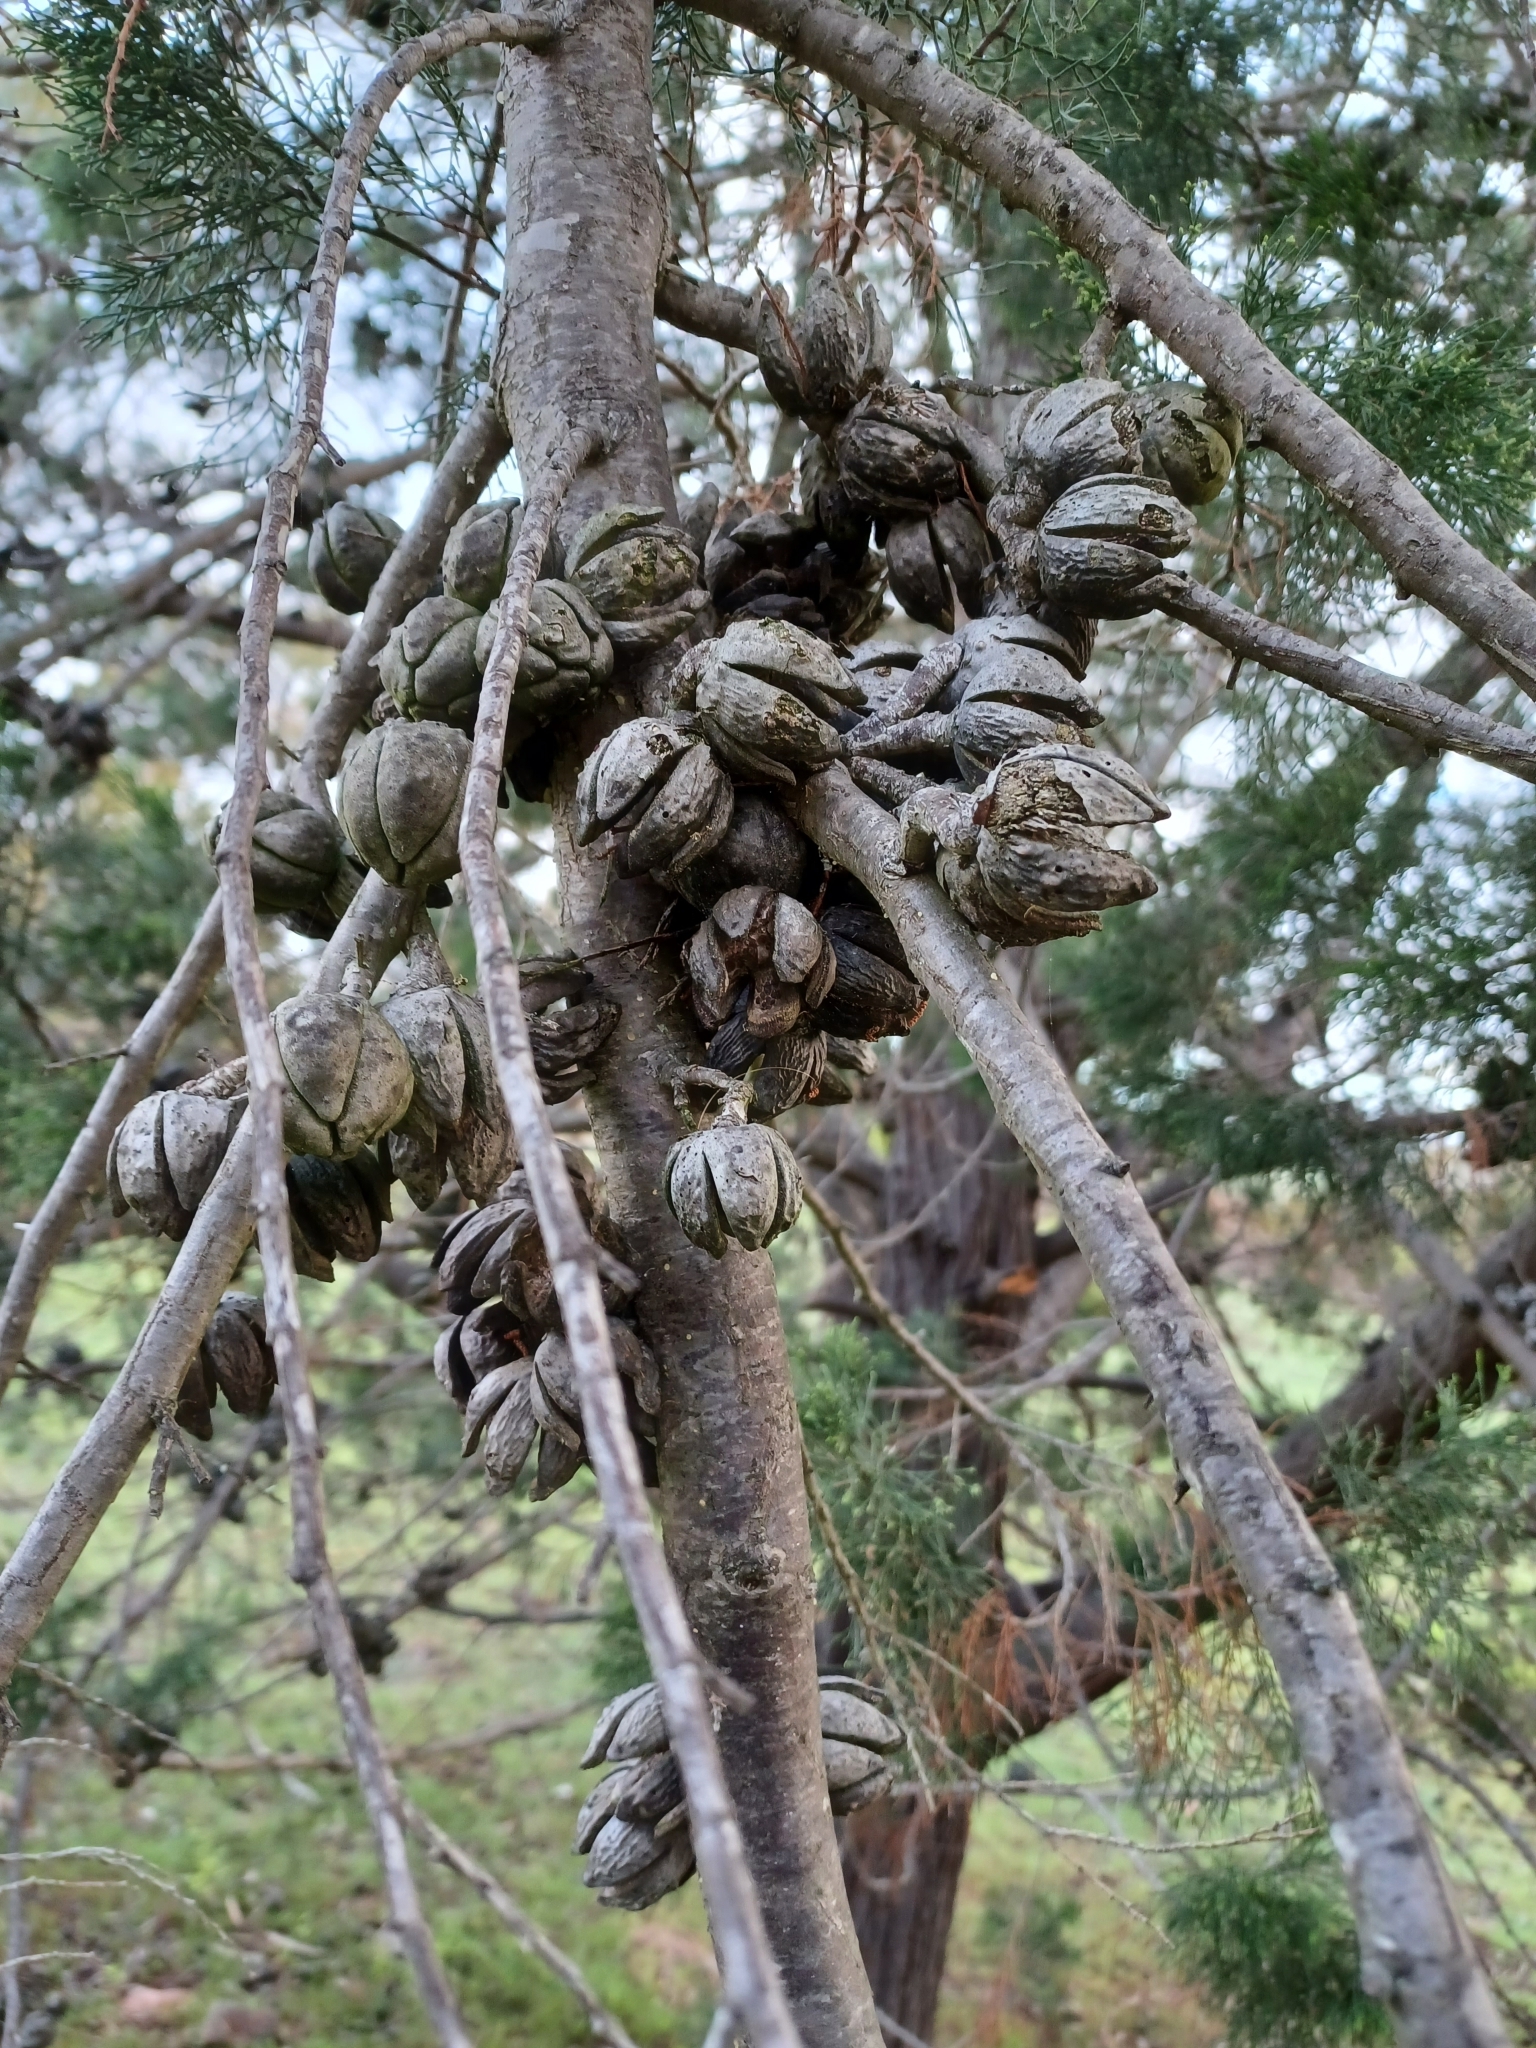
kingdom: Plantae
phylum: Tracheophyta
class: Pinopsida
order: Pinales
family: Cupressaceae
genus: Callitris
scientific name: Callitris preissii
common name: Mallee pine
